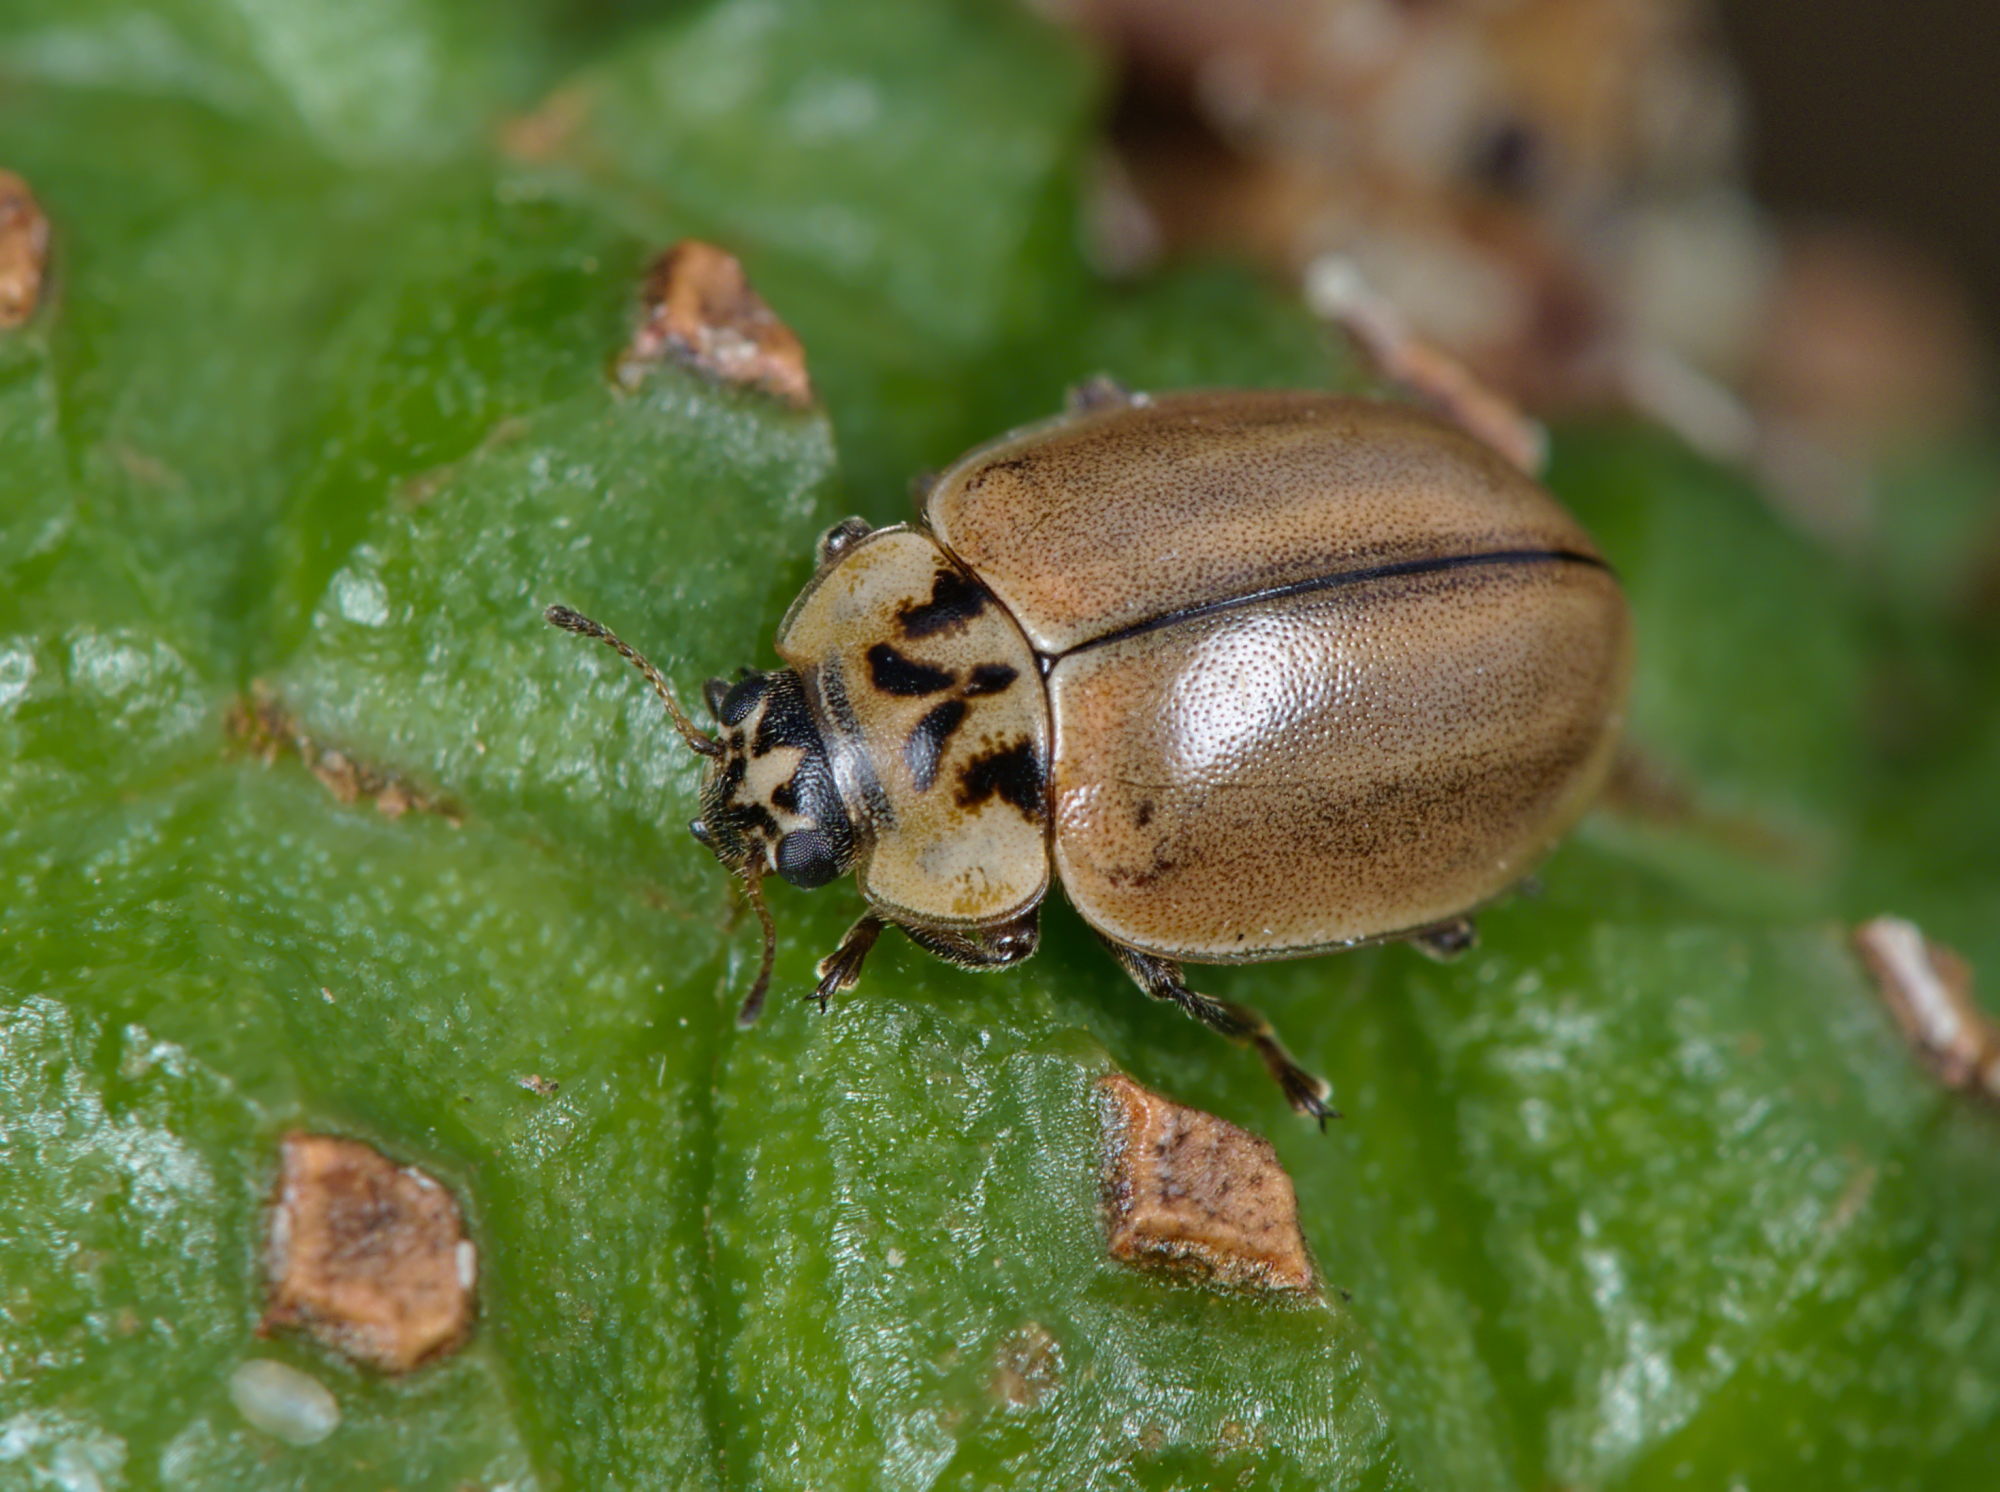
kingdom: Animalia
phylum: Arthropoda
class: Insecta
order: Coleoptera
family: Coccinellidae
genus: Aphidecta
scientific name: Aphidecta obliterata
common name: Larch ladybird
